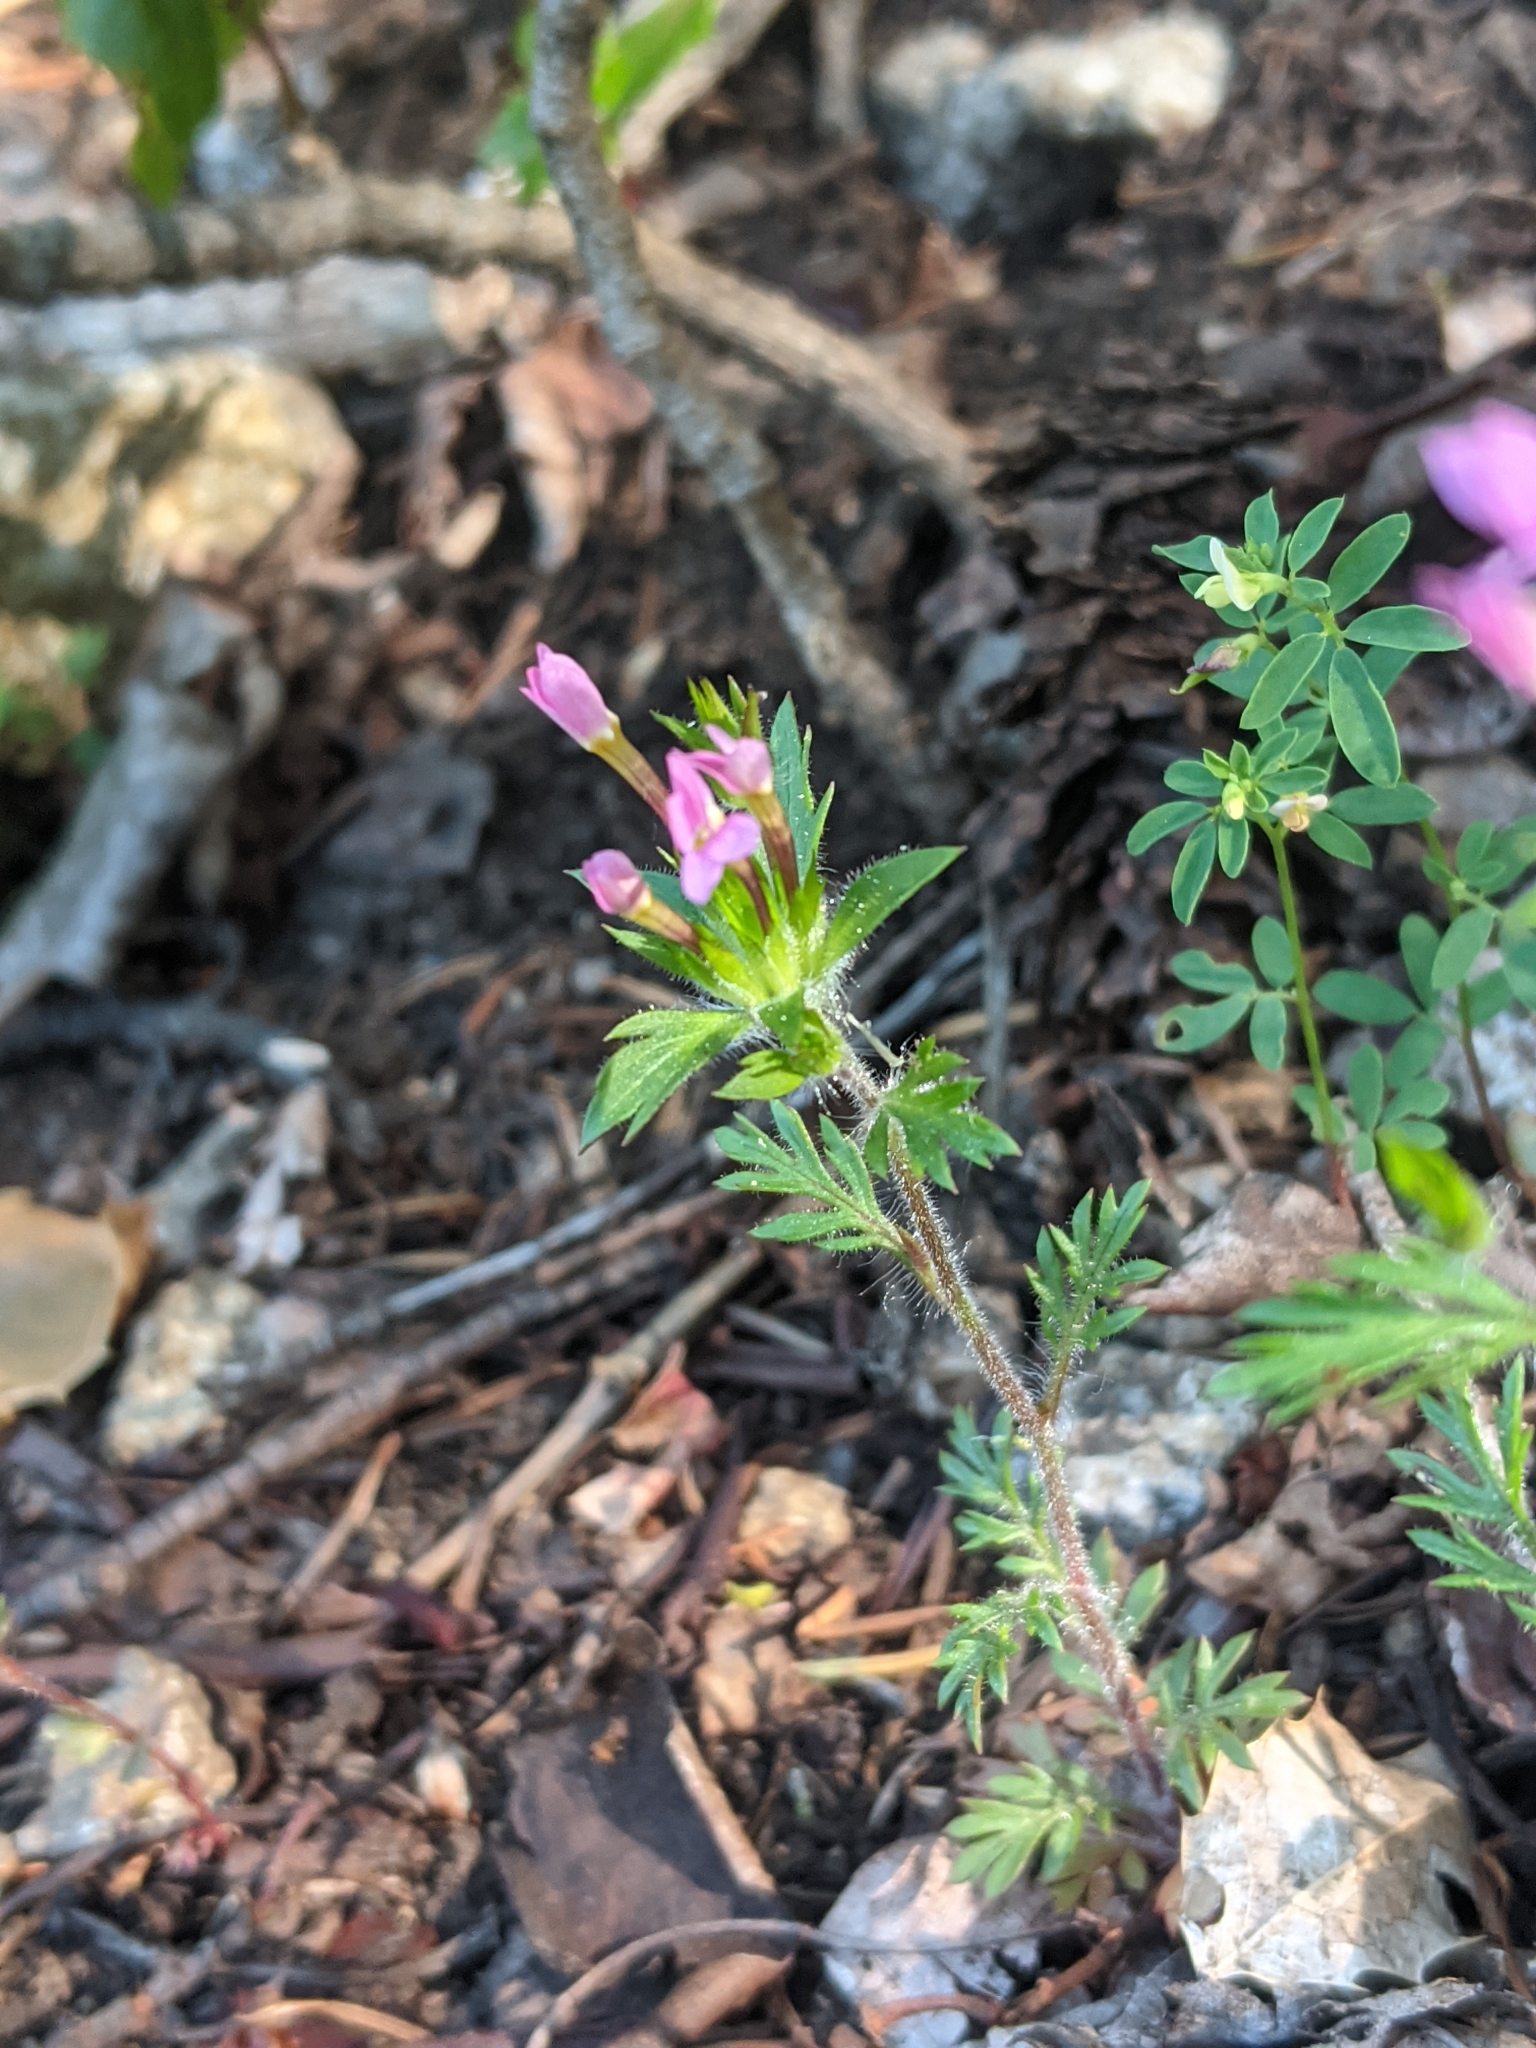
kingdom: Plantae
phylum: Tracheophyta
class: Magnoliopsida
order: Ericales
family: Polemoniaceae
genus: Collomia
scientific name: Collomia heterophylla
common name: Variable-leaved collomia
